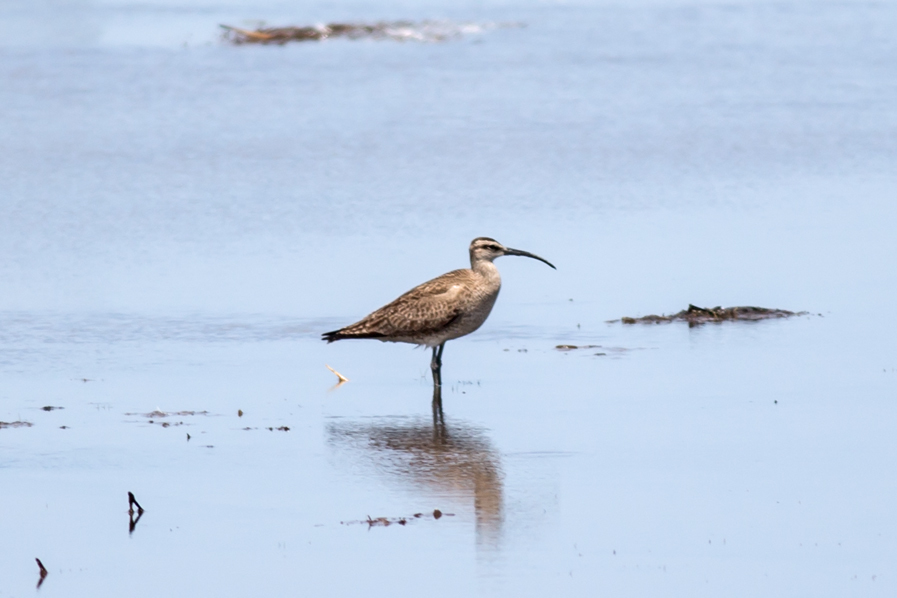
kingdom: Animalia
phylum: Chordata
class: Aves
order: Charadriiformes
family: Scolopacidae
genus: Numenius
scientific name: Numenius phaeopus
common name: Whimbrel
